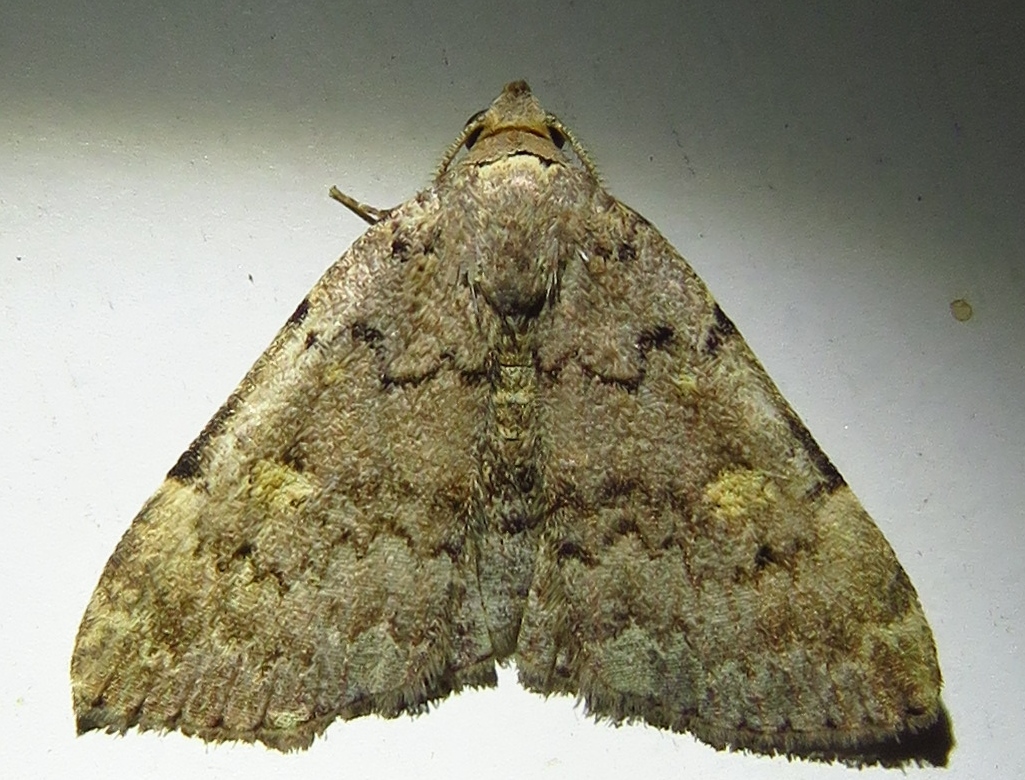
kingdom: Animalia
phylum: Arthropoda
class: Insecta
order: Lepidoptera
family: Erebidae
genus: Idia
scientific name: Idia aemula
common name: Common idia moth
